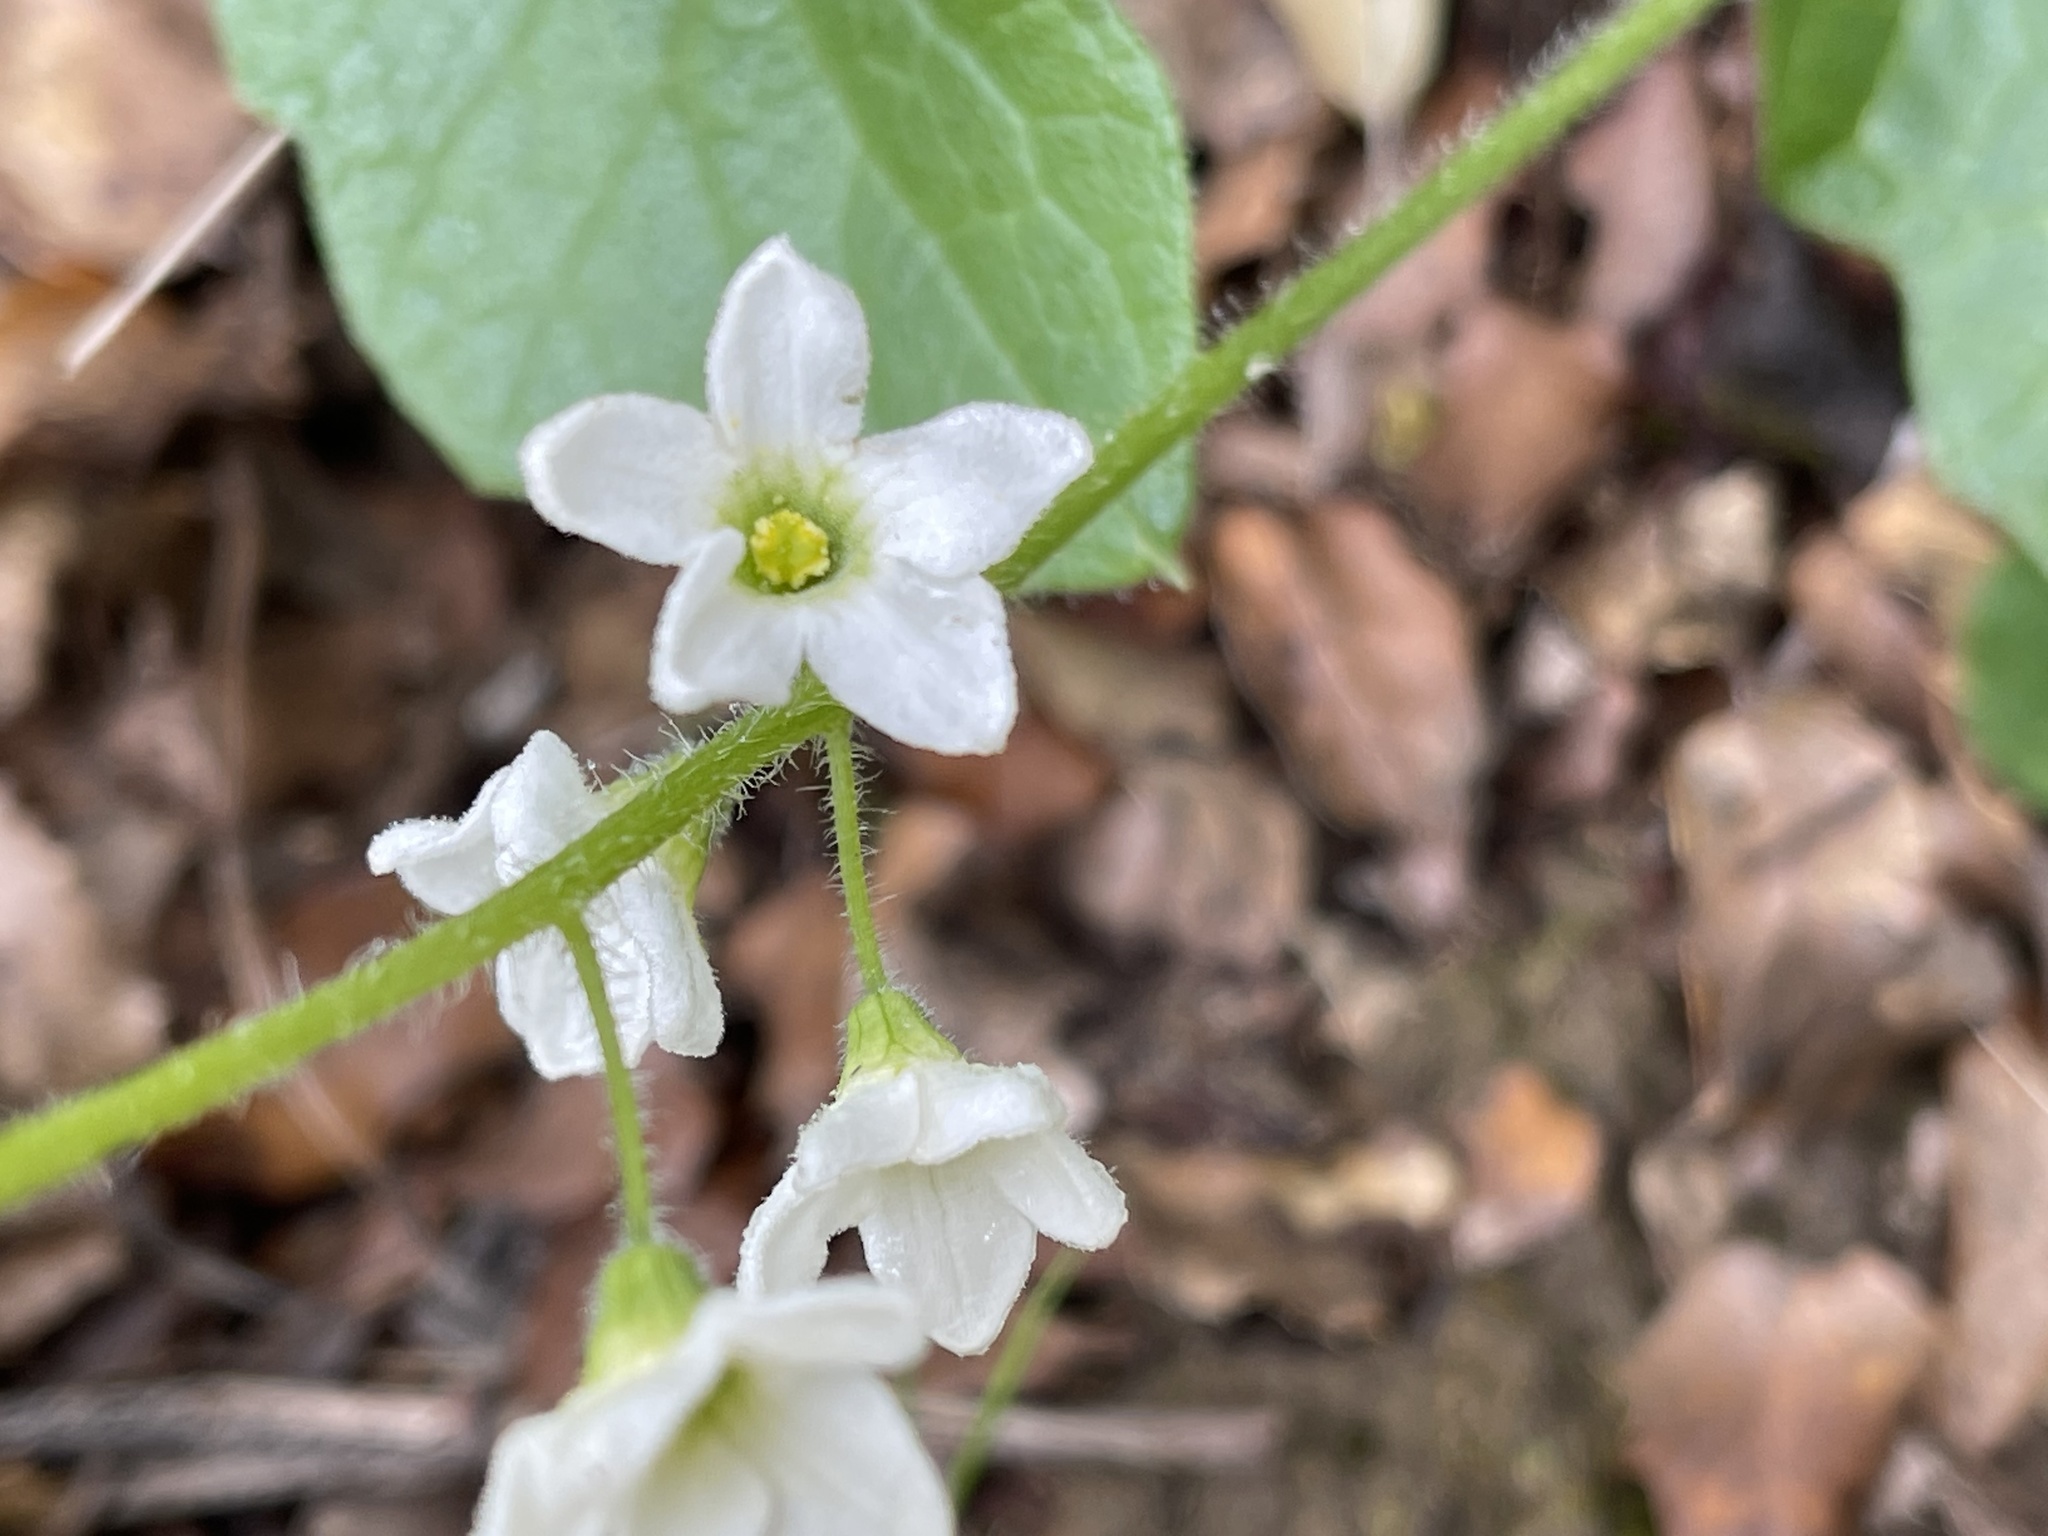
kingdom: Plantae
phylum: Tracheophyta
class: Magnoliopsida
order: Cucurbitales
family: Cucurbitaceae
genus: Marah
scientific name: Marah fabacea
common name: California manroot
